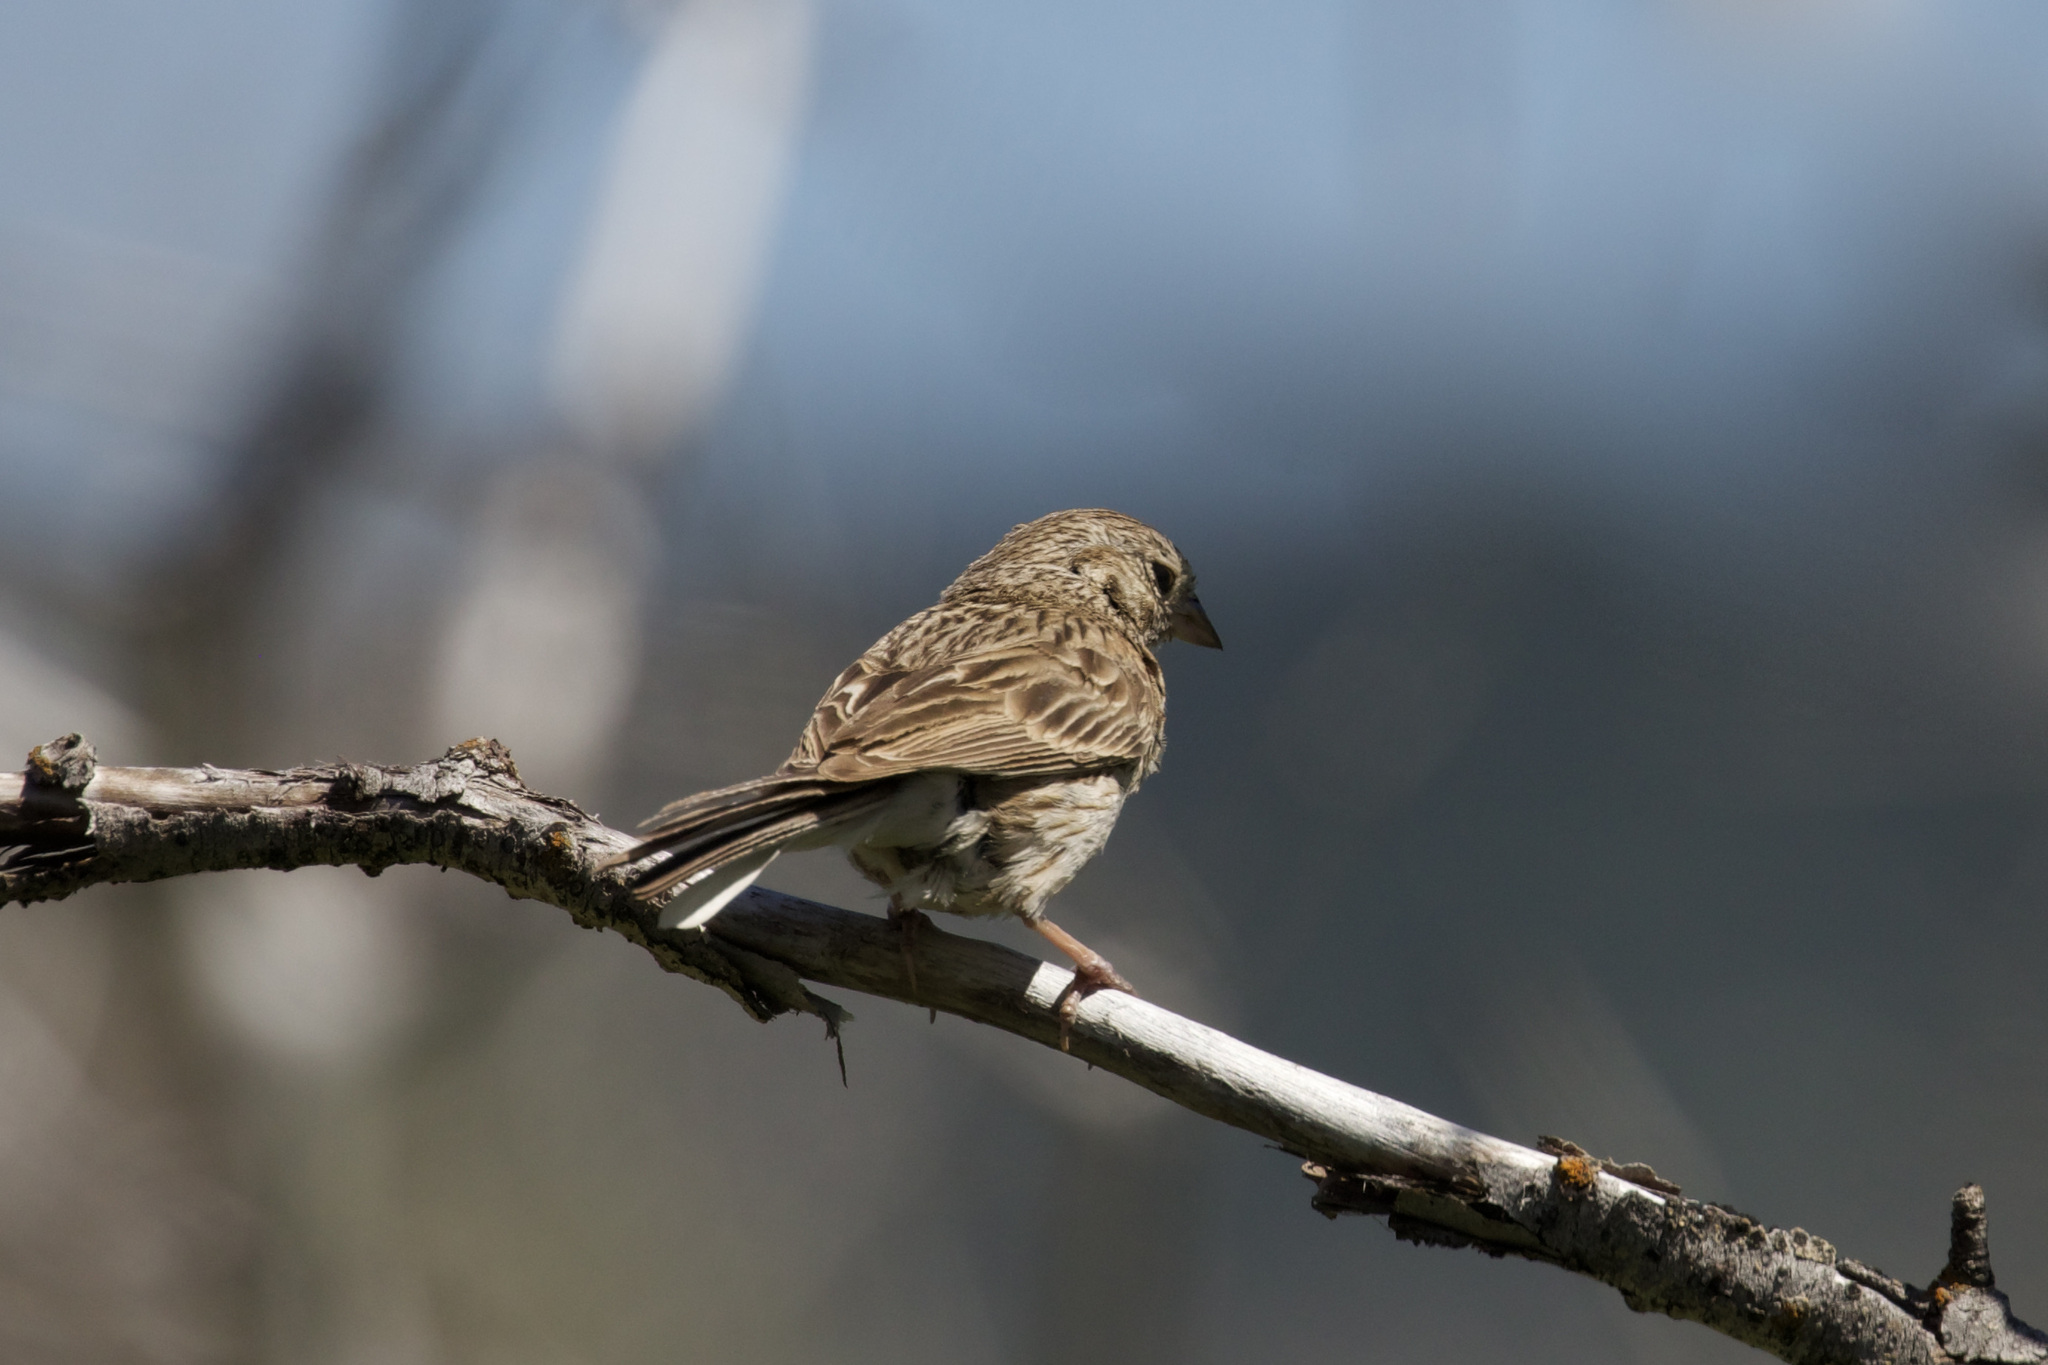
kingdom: Animalia
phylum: Chordata
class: Aves
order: Passeriformes
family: Passerellidae
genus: Pooecetes
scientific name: Pooecetes gramineus
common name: Vesper sparrow
